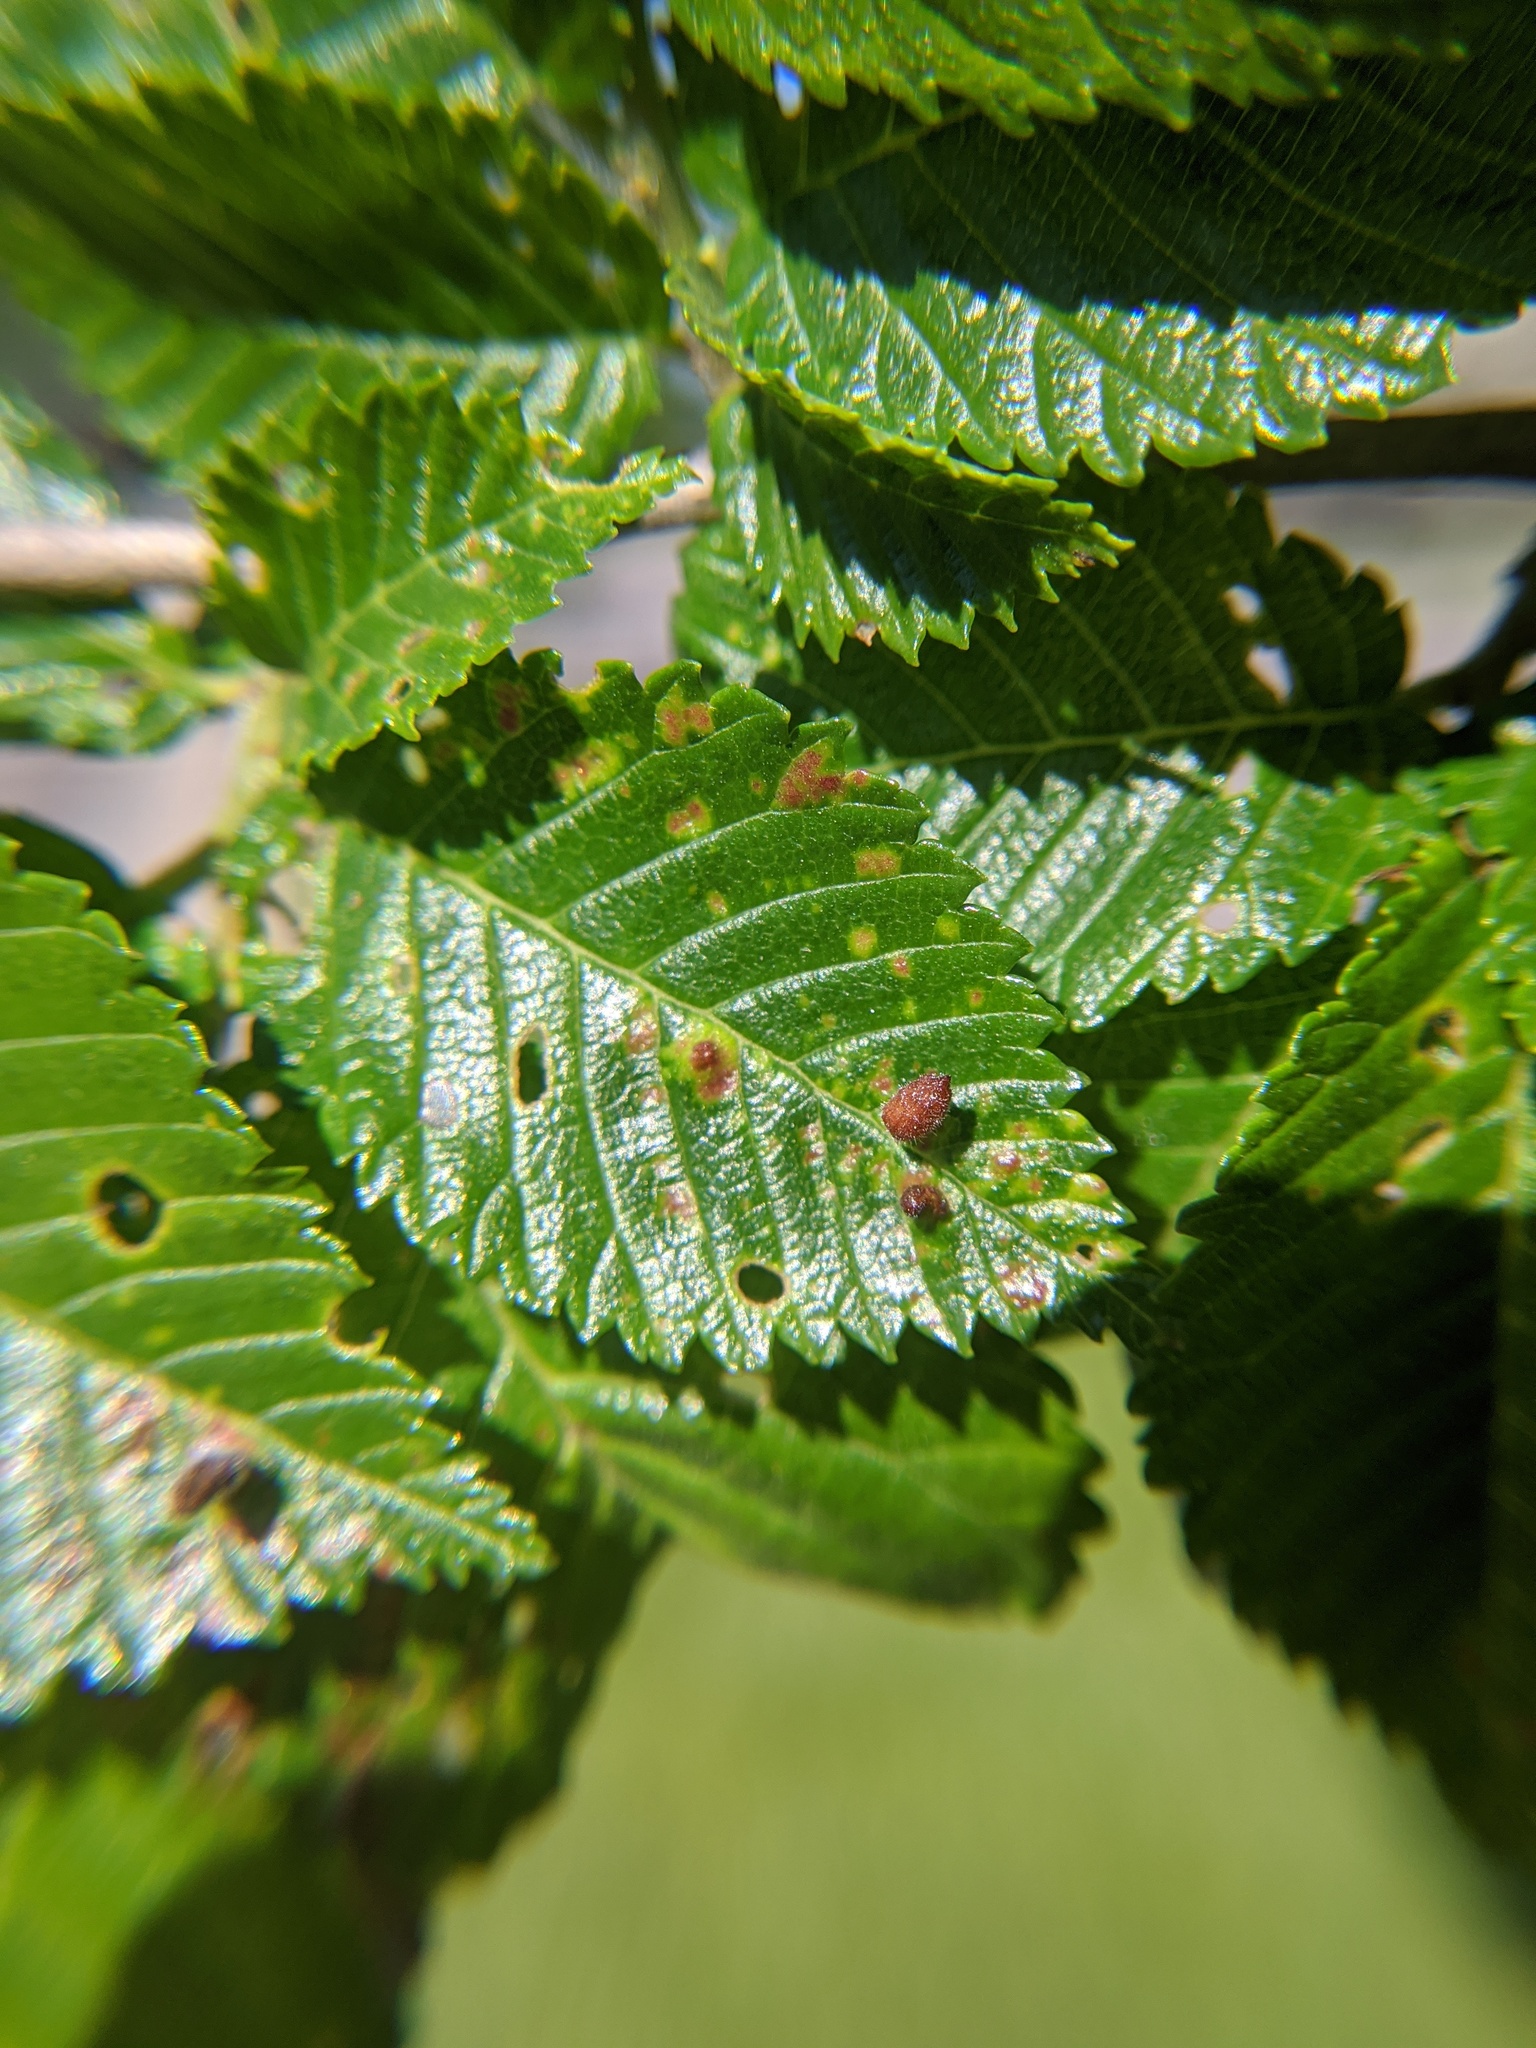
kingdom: Animalia
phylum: Arthropoda
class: Insecta
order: Hemiptera
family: Aphididae
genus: Tetraneura
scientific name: Tetraneura nigriabdominalis
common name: Aphid
